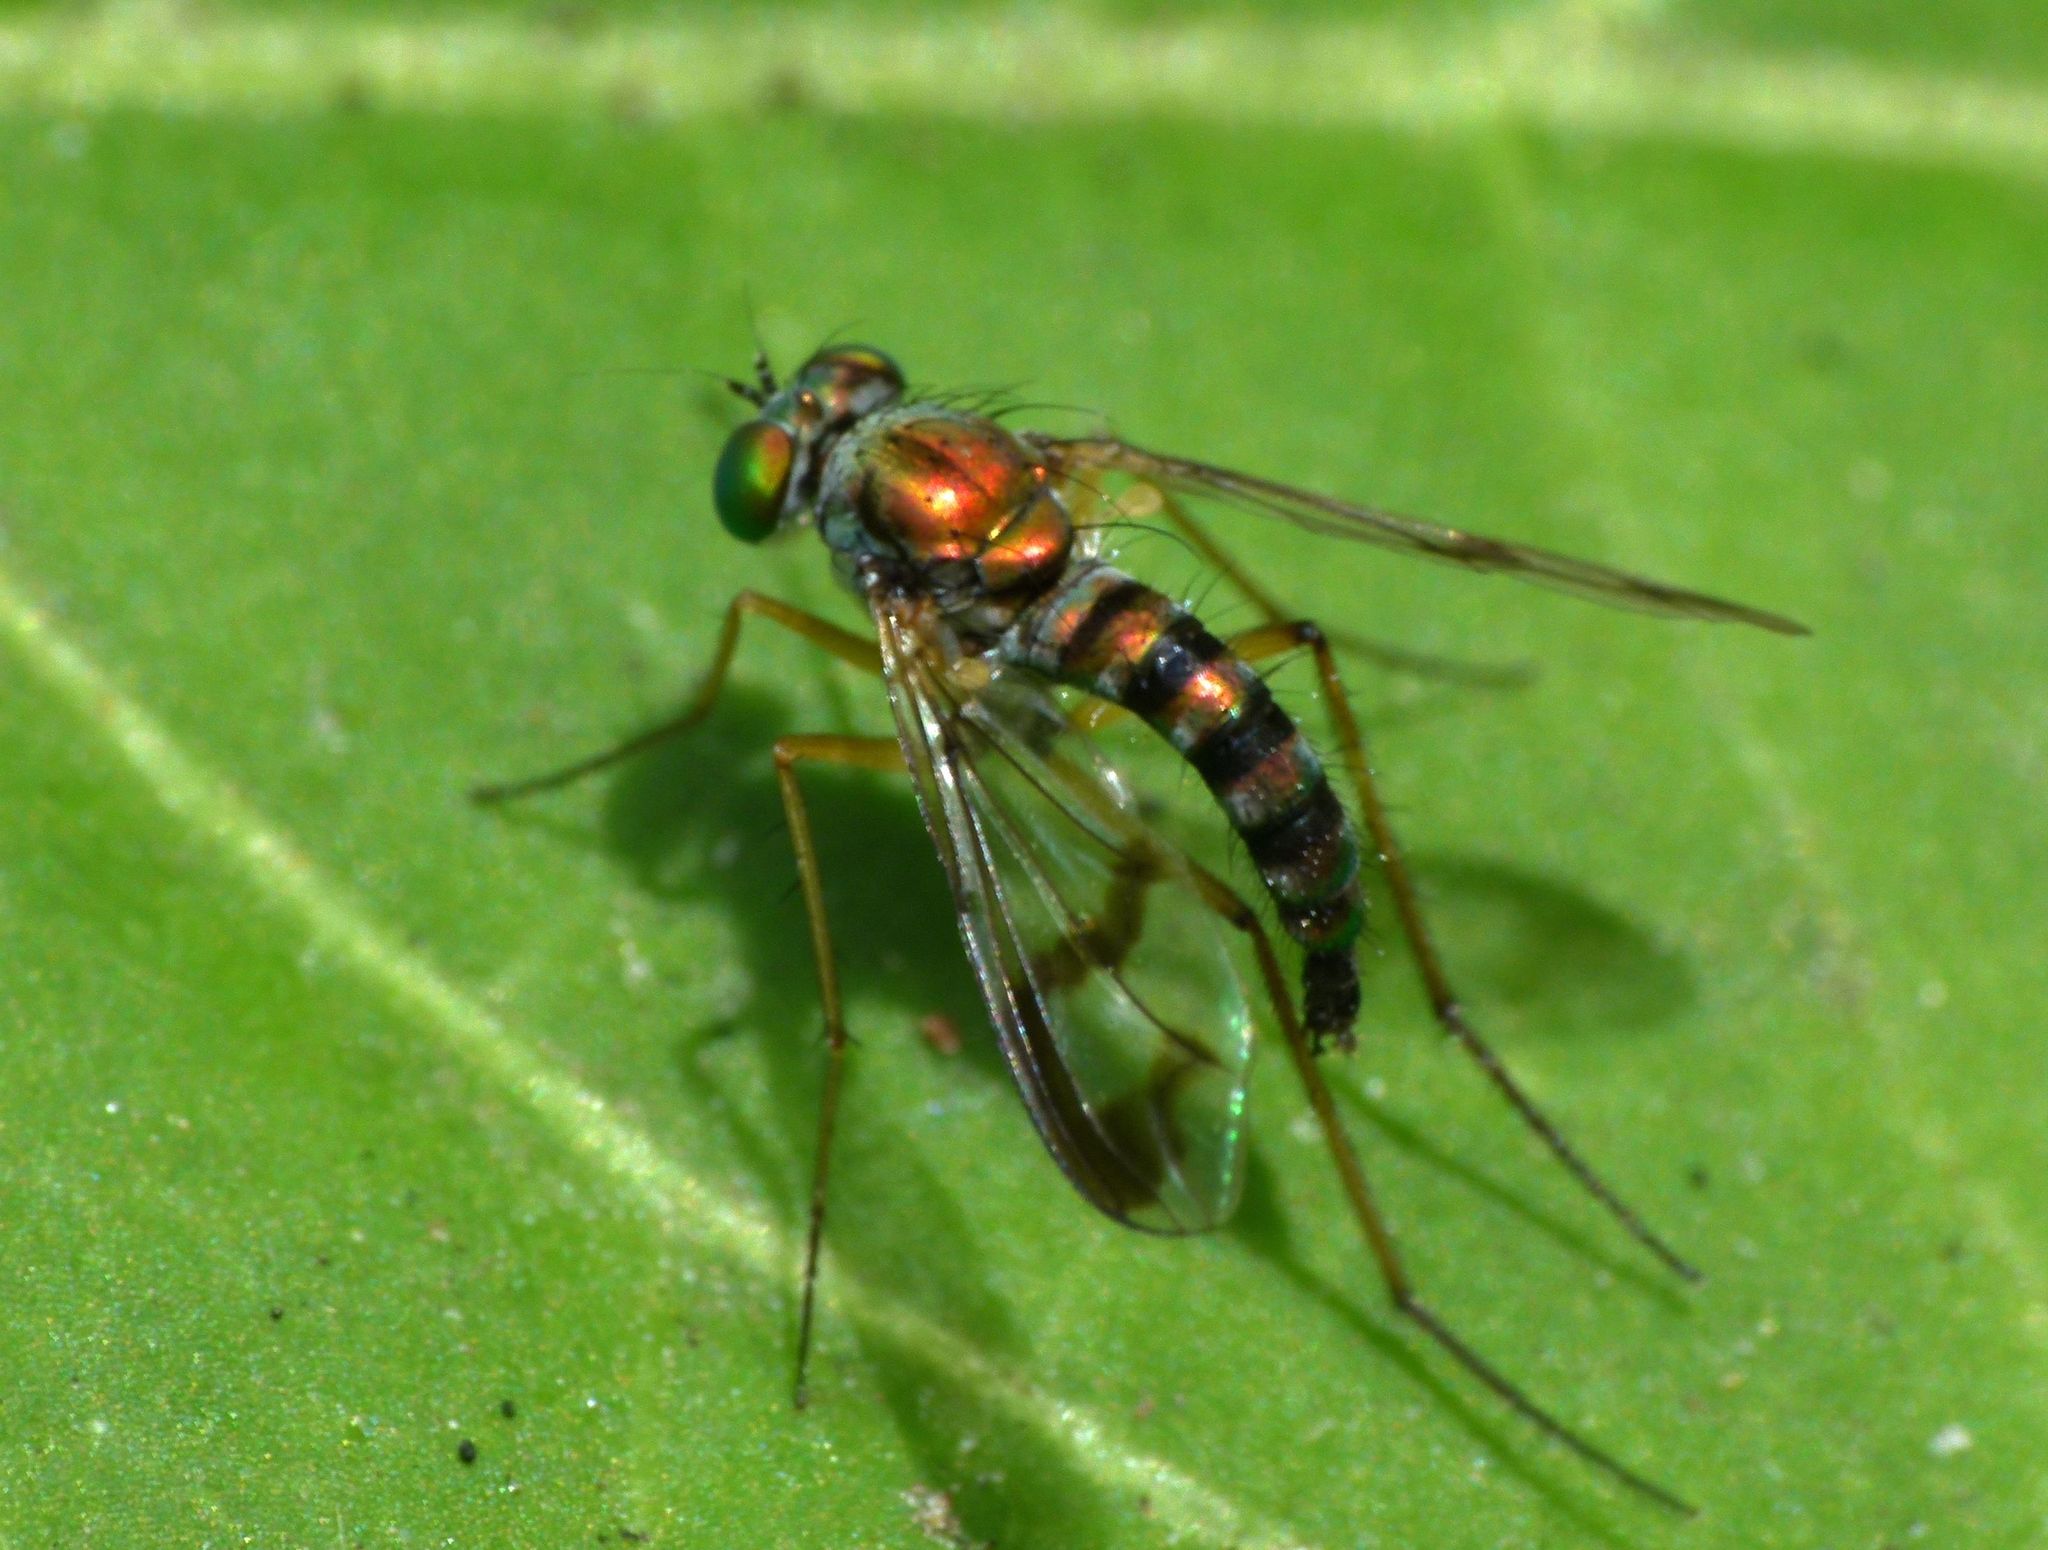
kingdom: Animalia
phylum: Arthropoda
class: Insecta
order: Diptera
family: Dolichopodidae
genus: Austrosciapus
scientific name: Austrosciapus proximus
